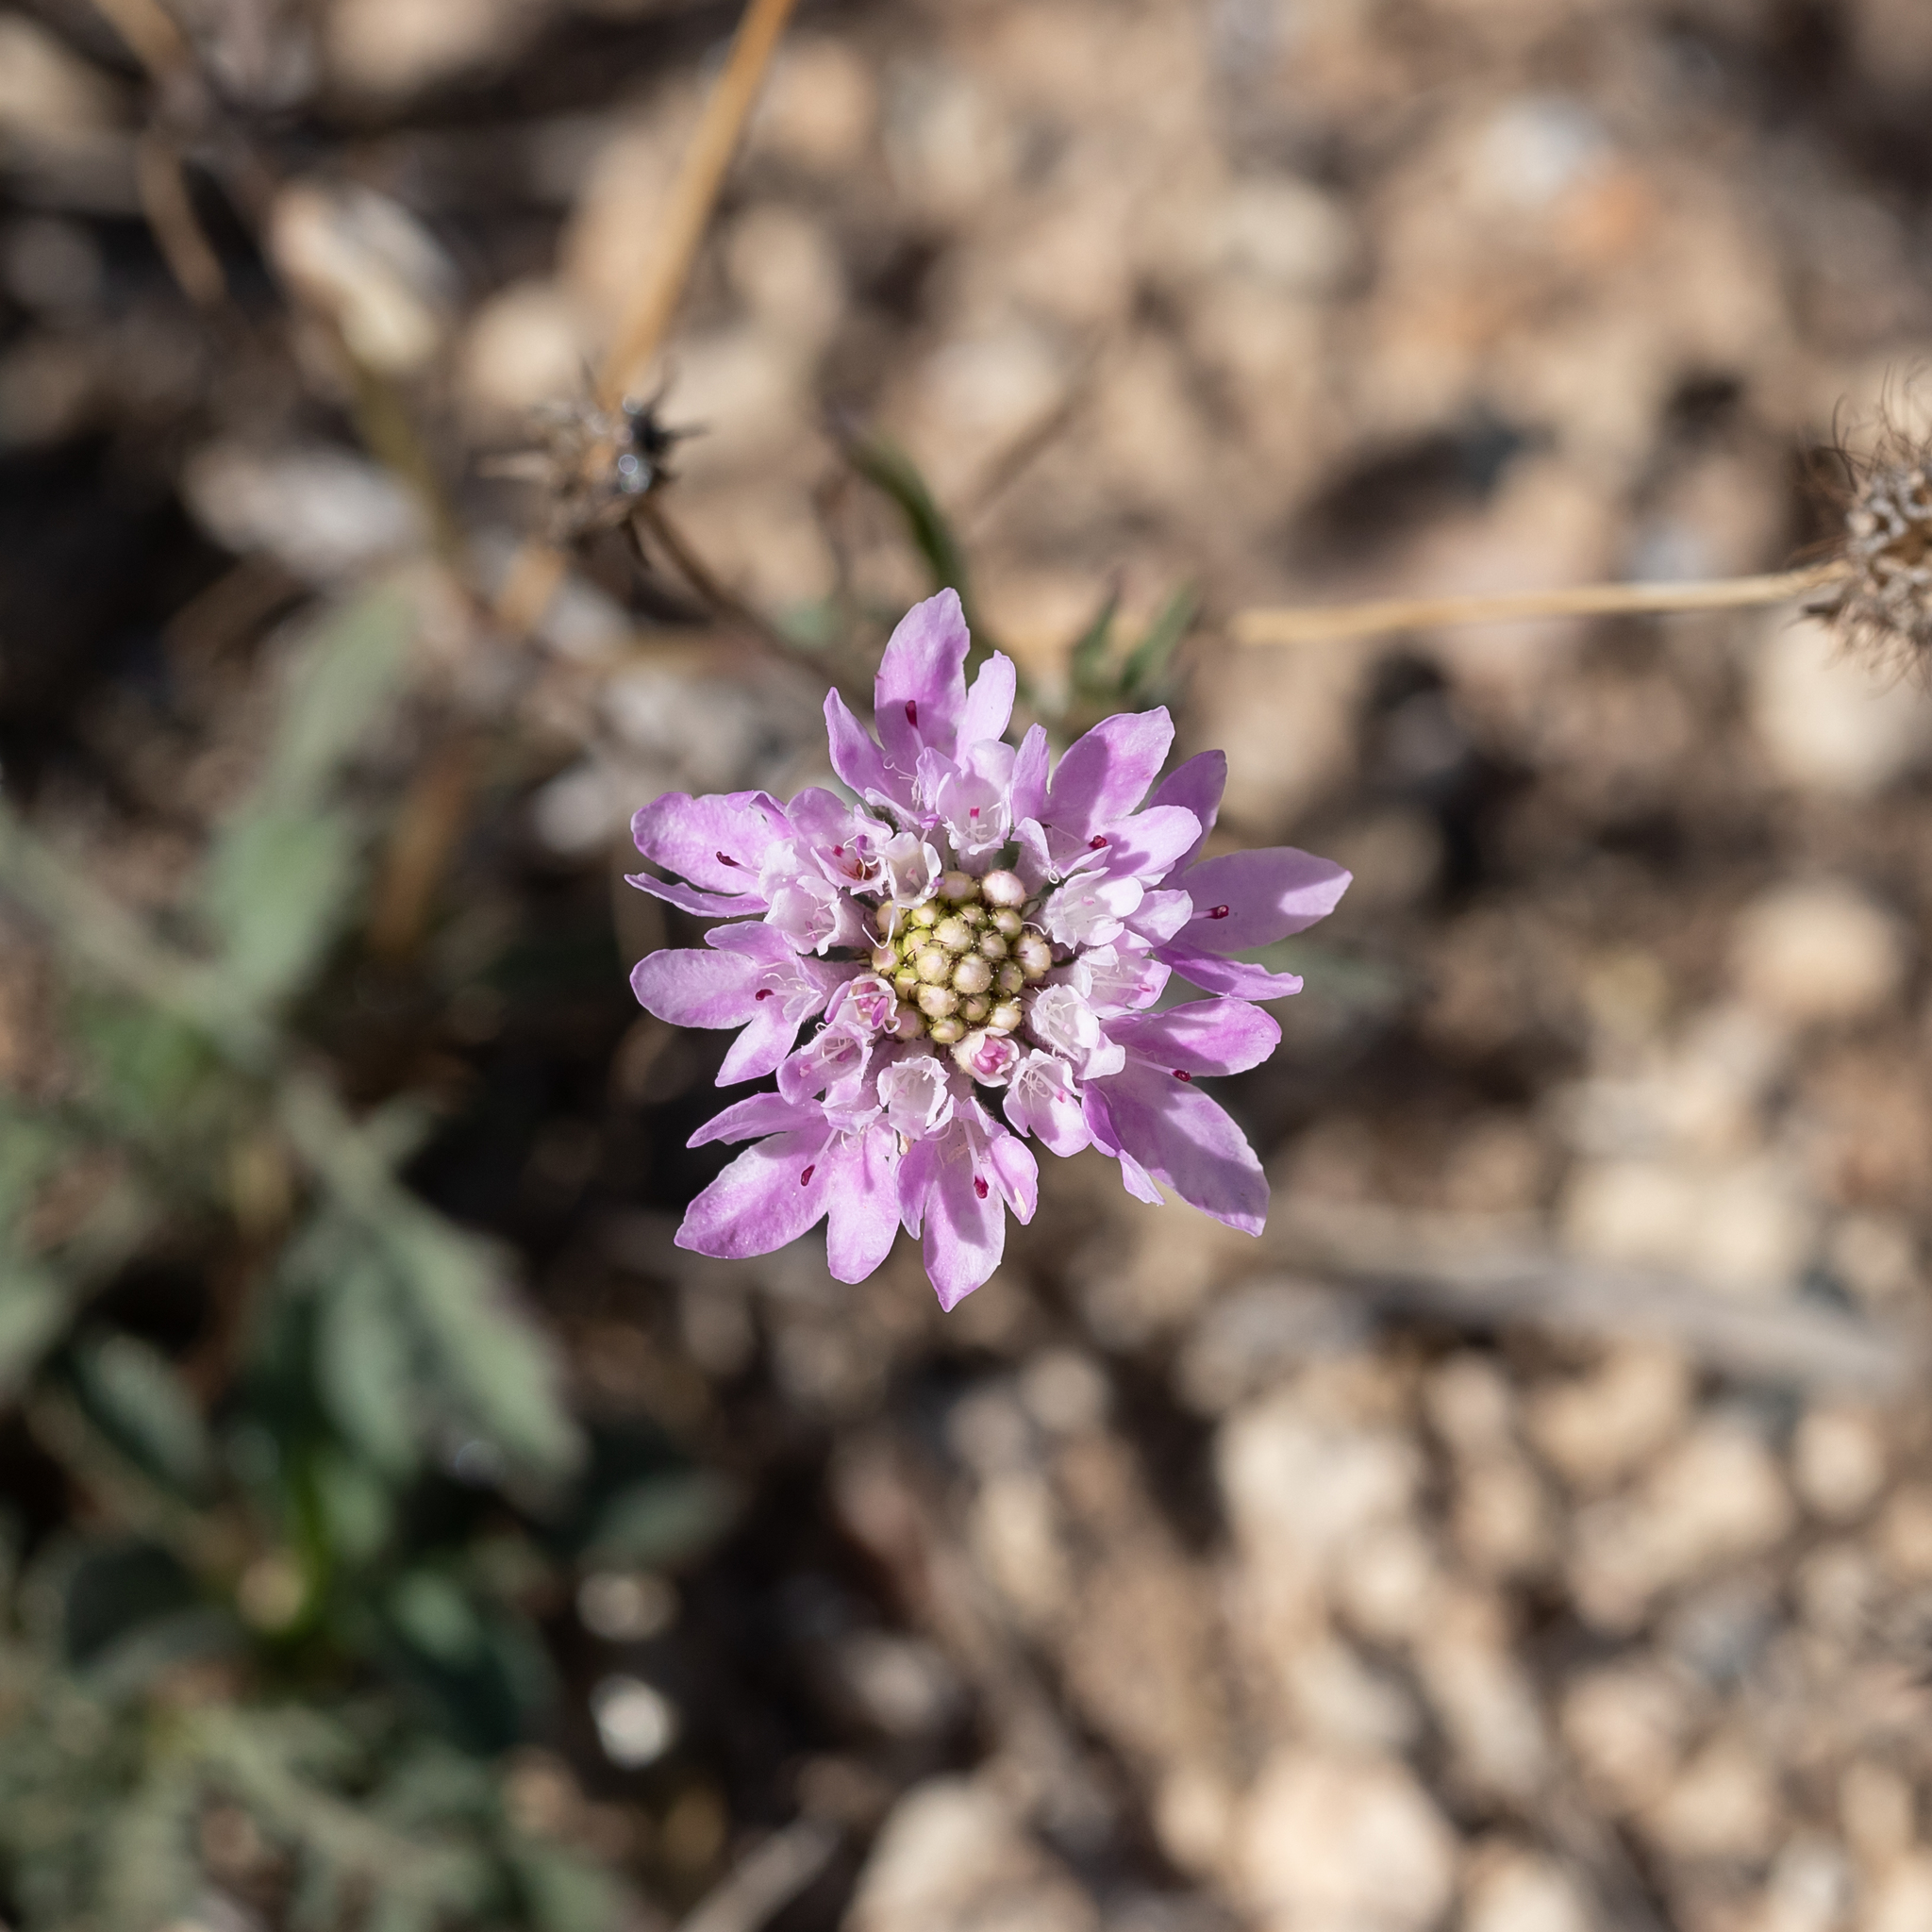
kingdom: Plantae
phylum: Tracheophyta
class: Magnoliopsida
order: Dipsacales
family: Caprifoliaceae
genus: Sixalix
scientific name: Sixalix atropurpurea
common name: Sweet scabious
